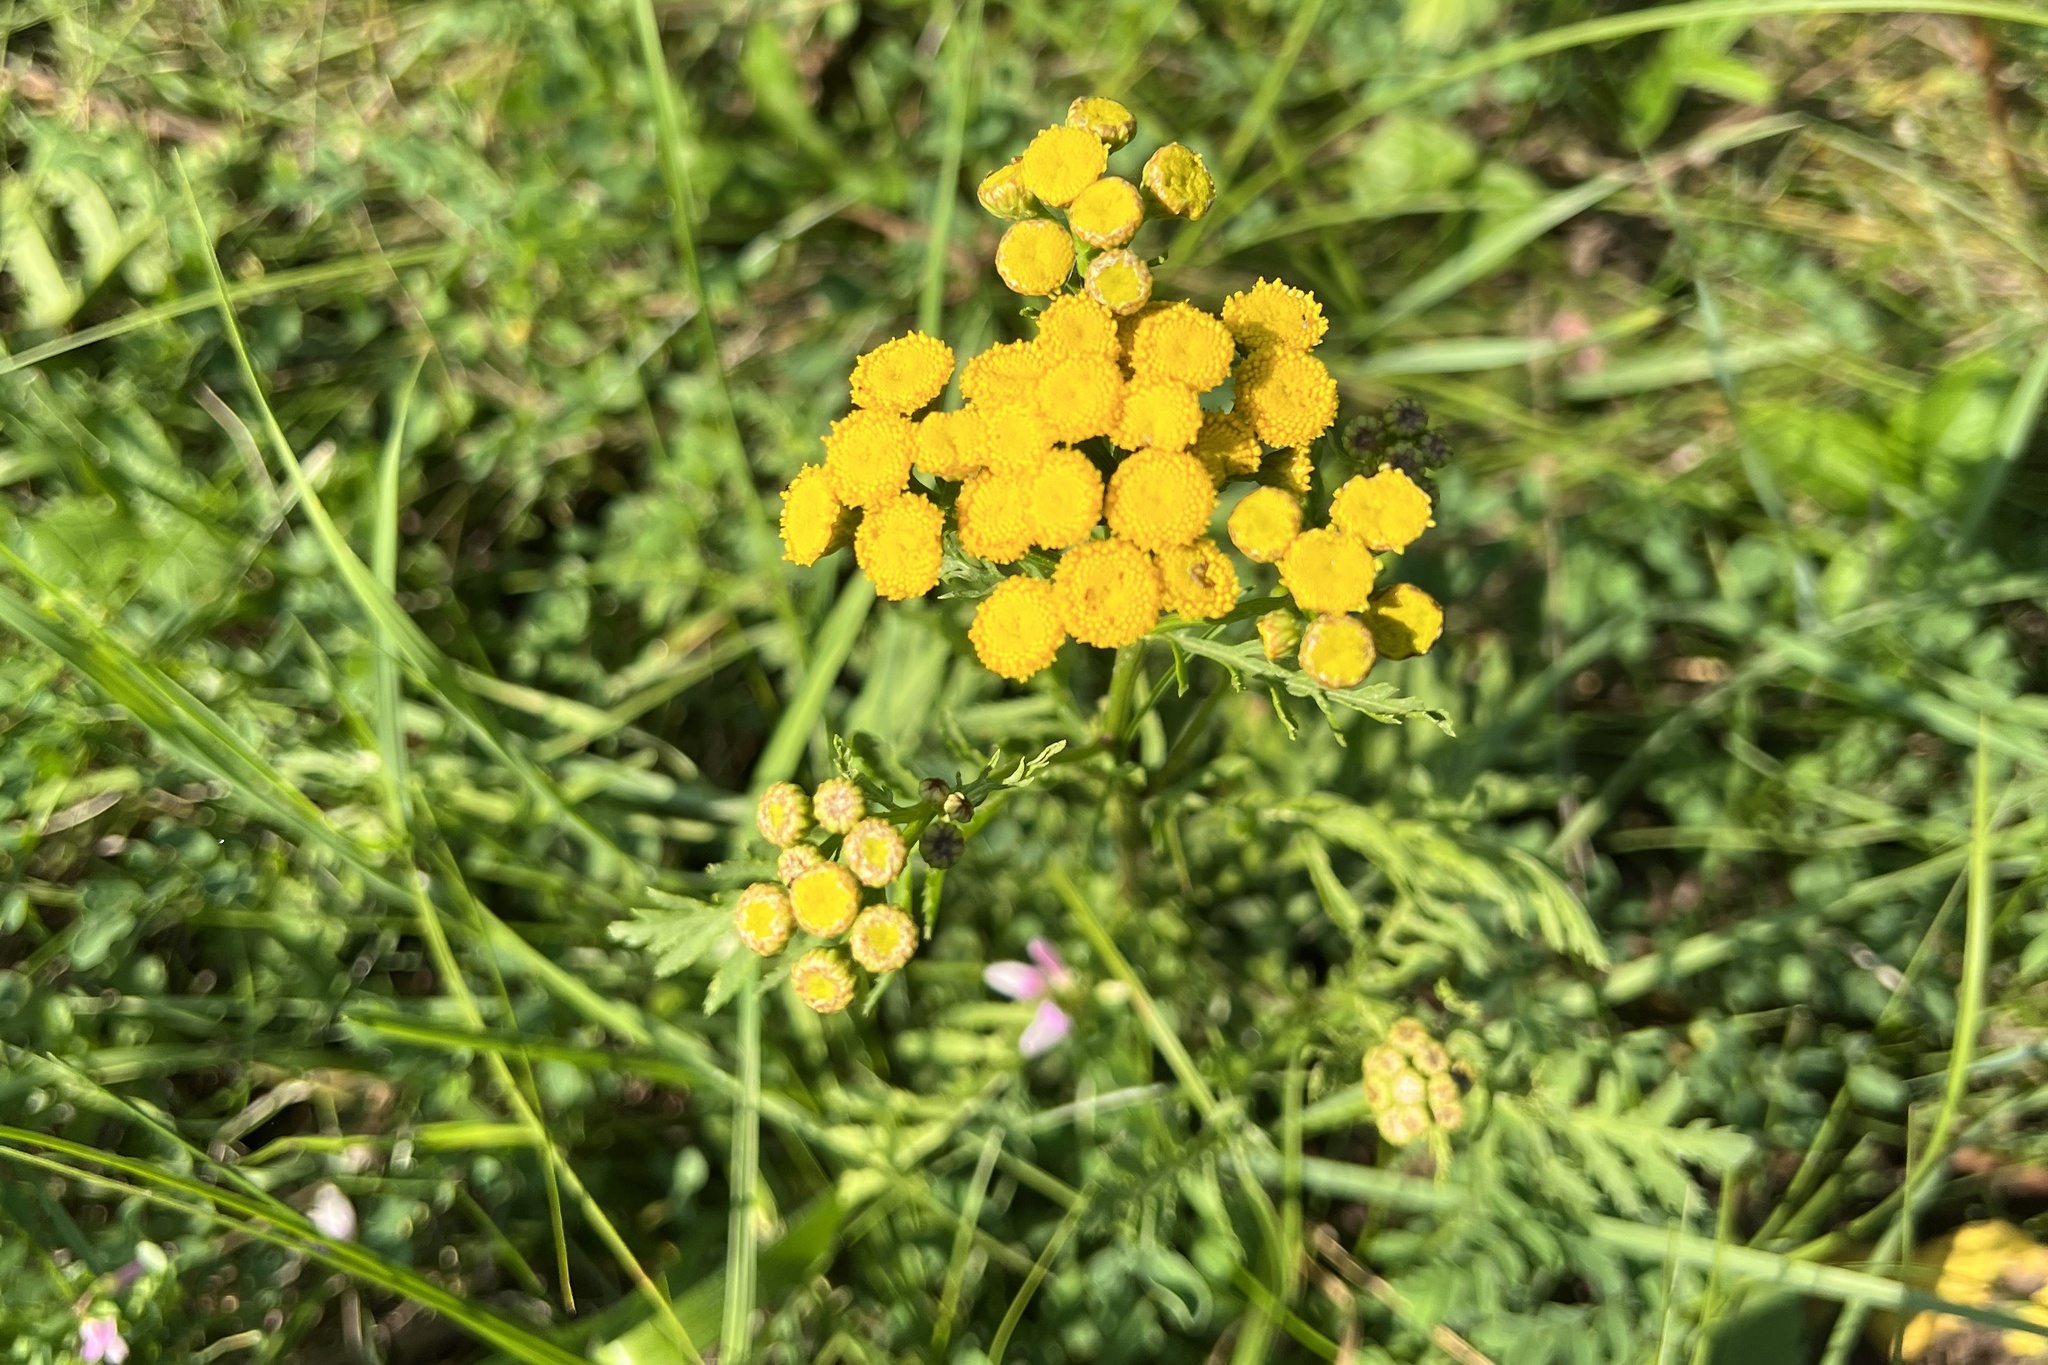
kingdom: Plantae
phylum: Tracheophyta
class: Magnoliopsida
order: Asterales
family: Asteraceae
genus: Tanacetum
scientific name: Tanacetum vulgare
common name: Common tansy
